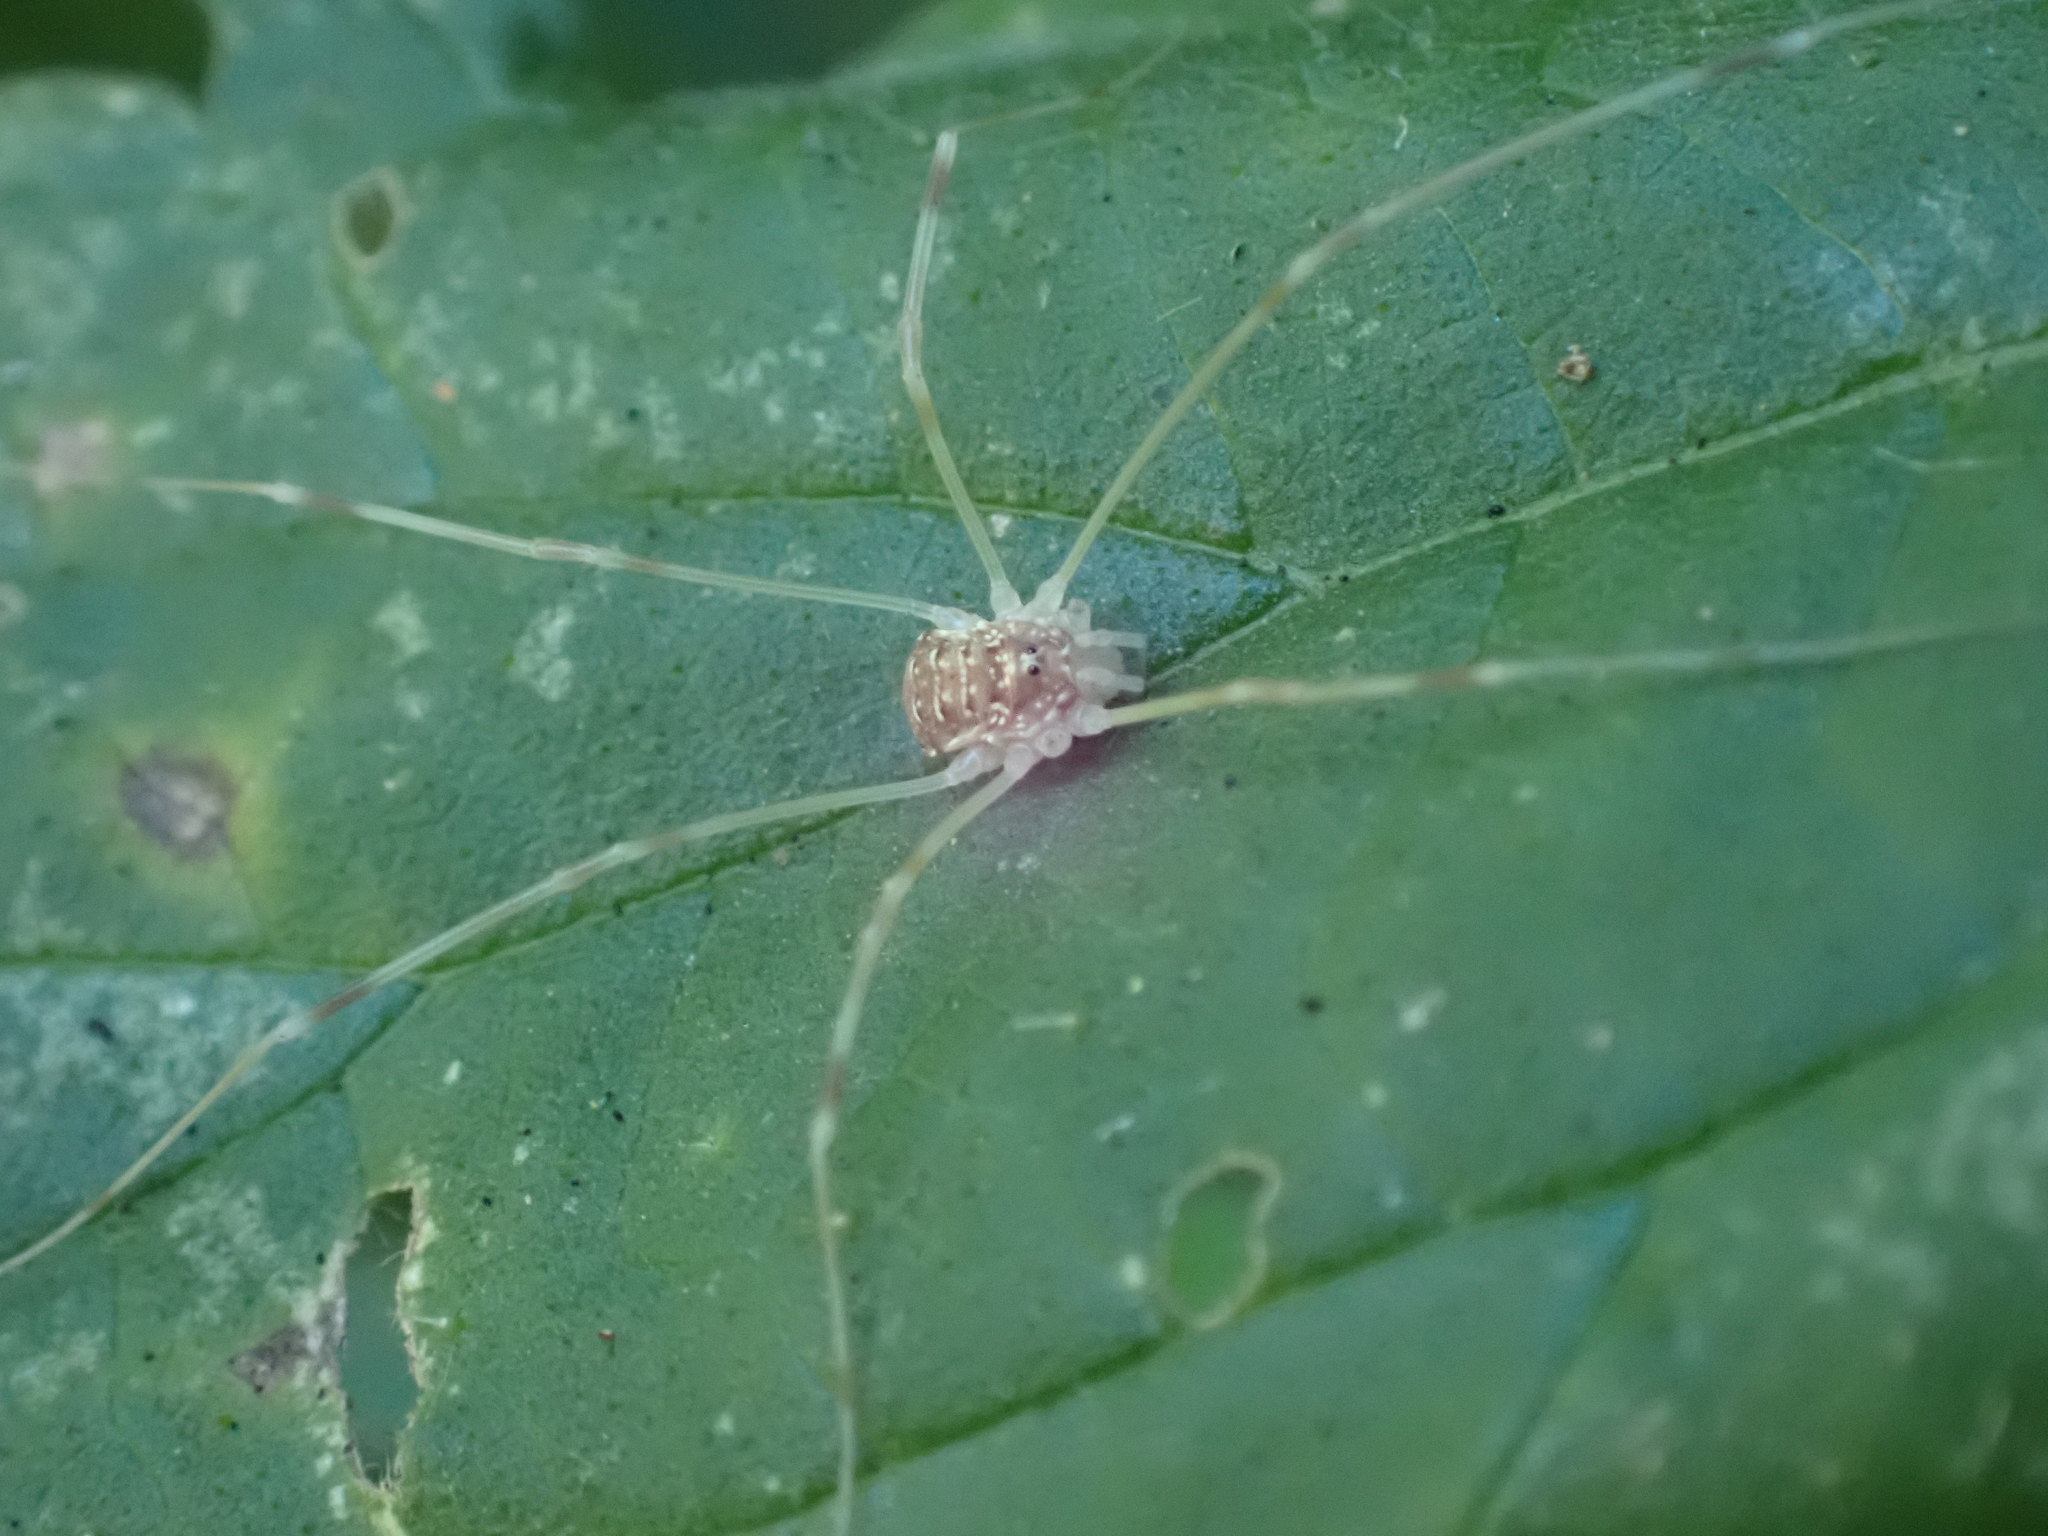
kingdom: Animalia
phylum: Arthropoda
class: Arachnida
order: Opiliones
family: Phalangiidae
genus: Opilio
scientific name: Opilio canestrinii
